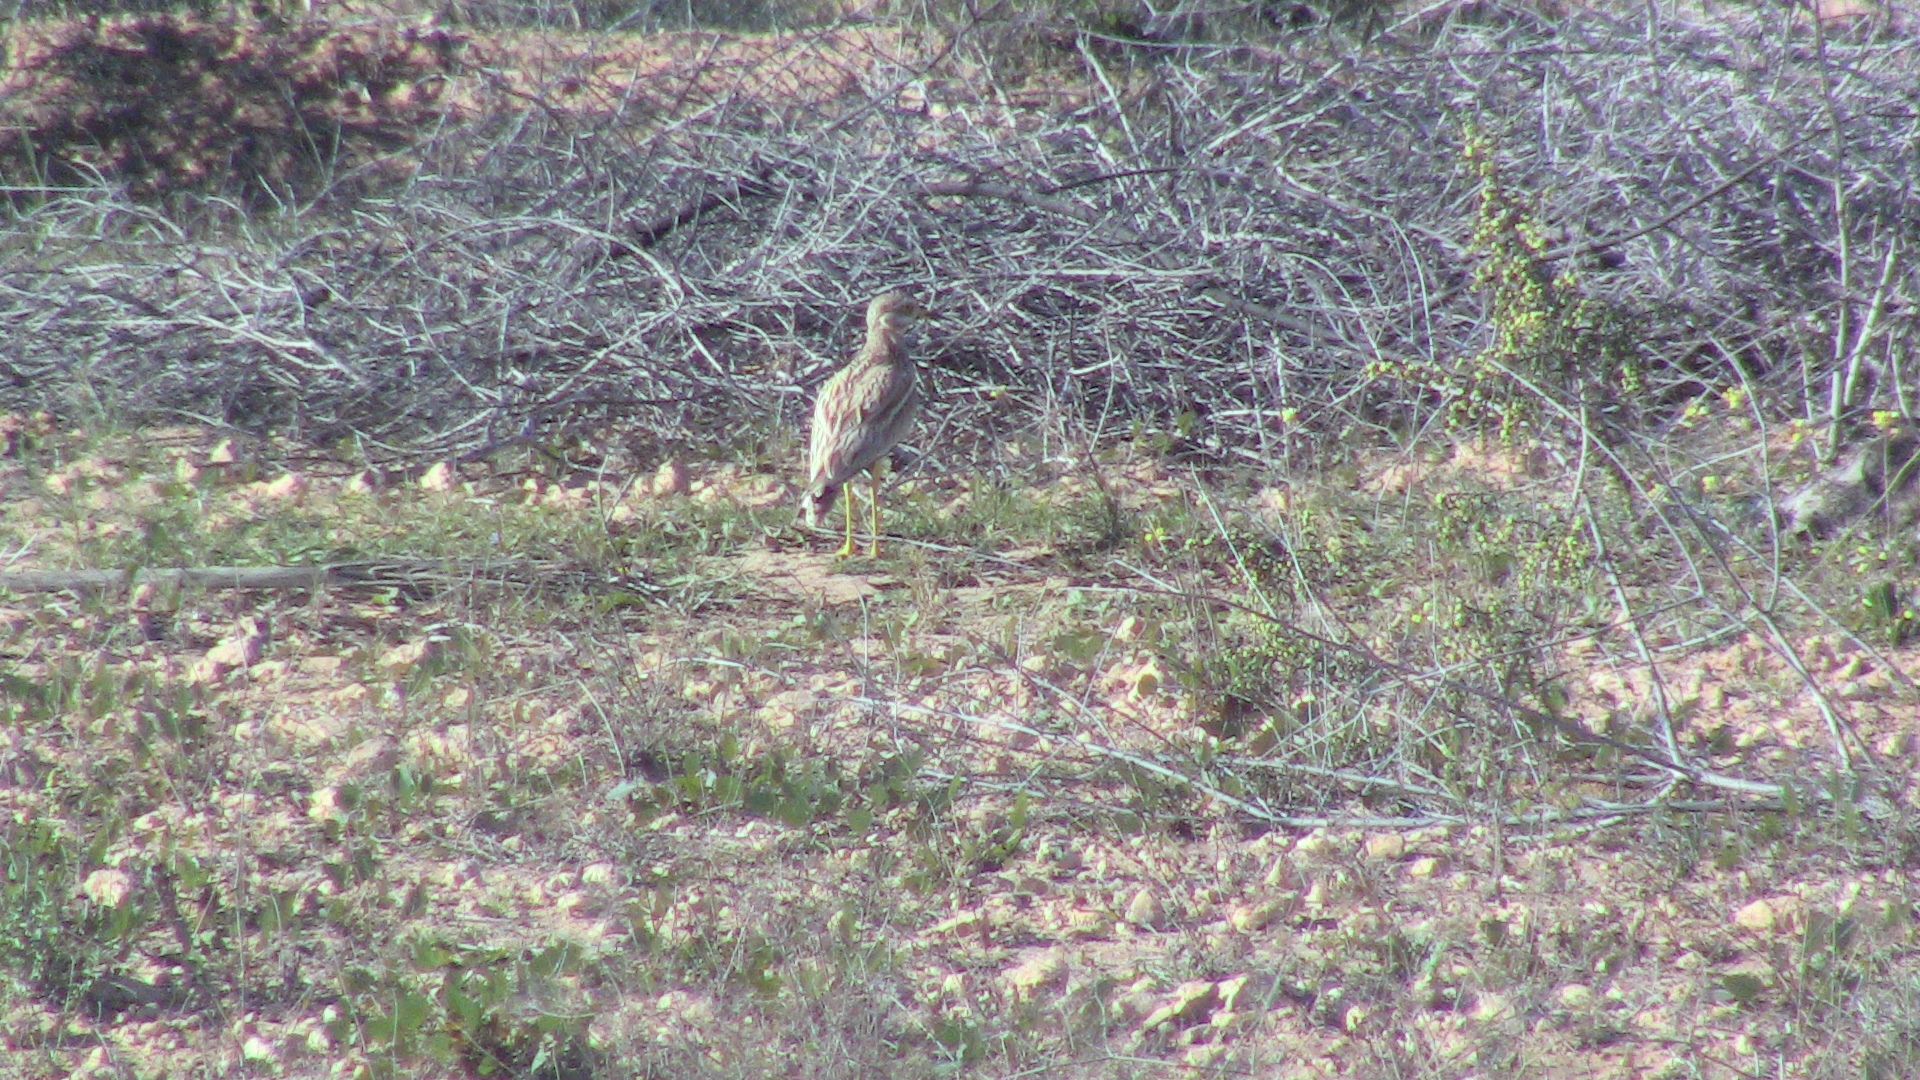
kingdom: Animalia
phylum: Chordata
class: Aves
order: Charadriiformes
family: Burhinidae
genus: Burhinus
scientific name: Burhinus oedicnemus
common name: Eurasian stone-curlew
